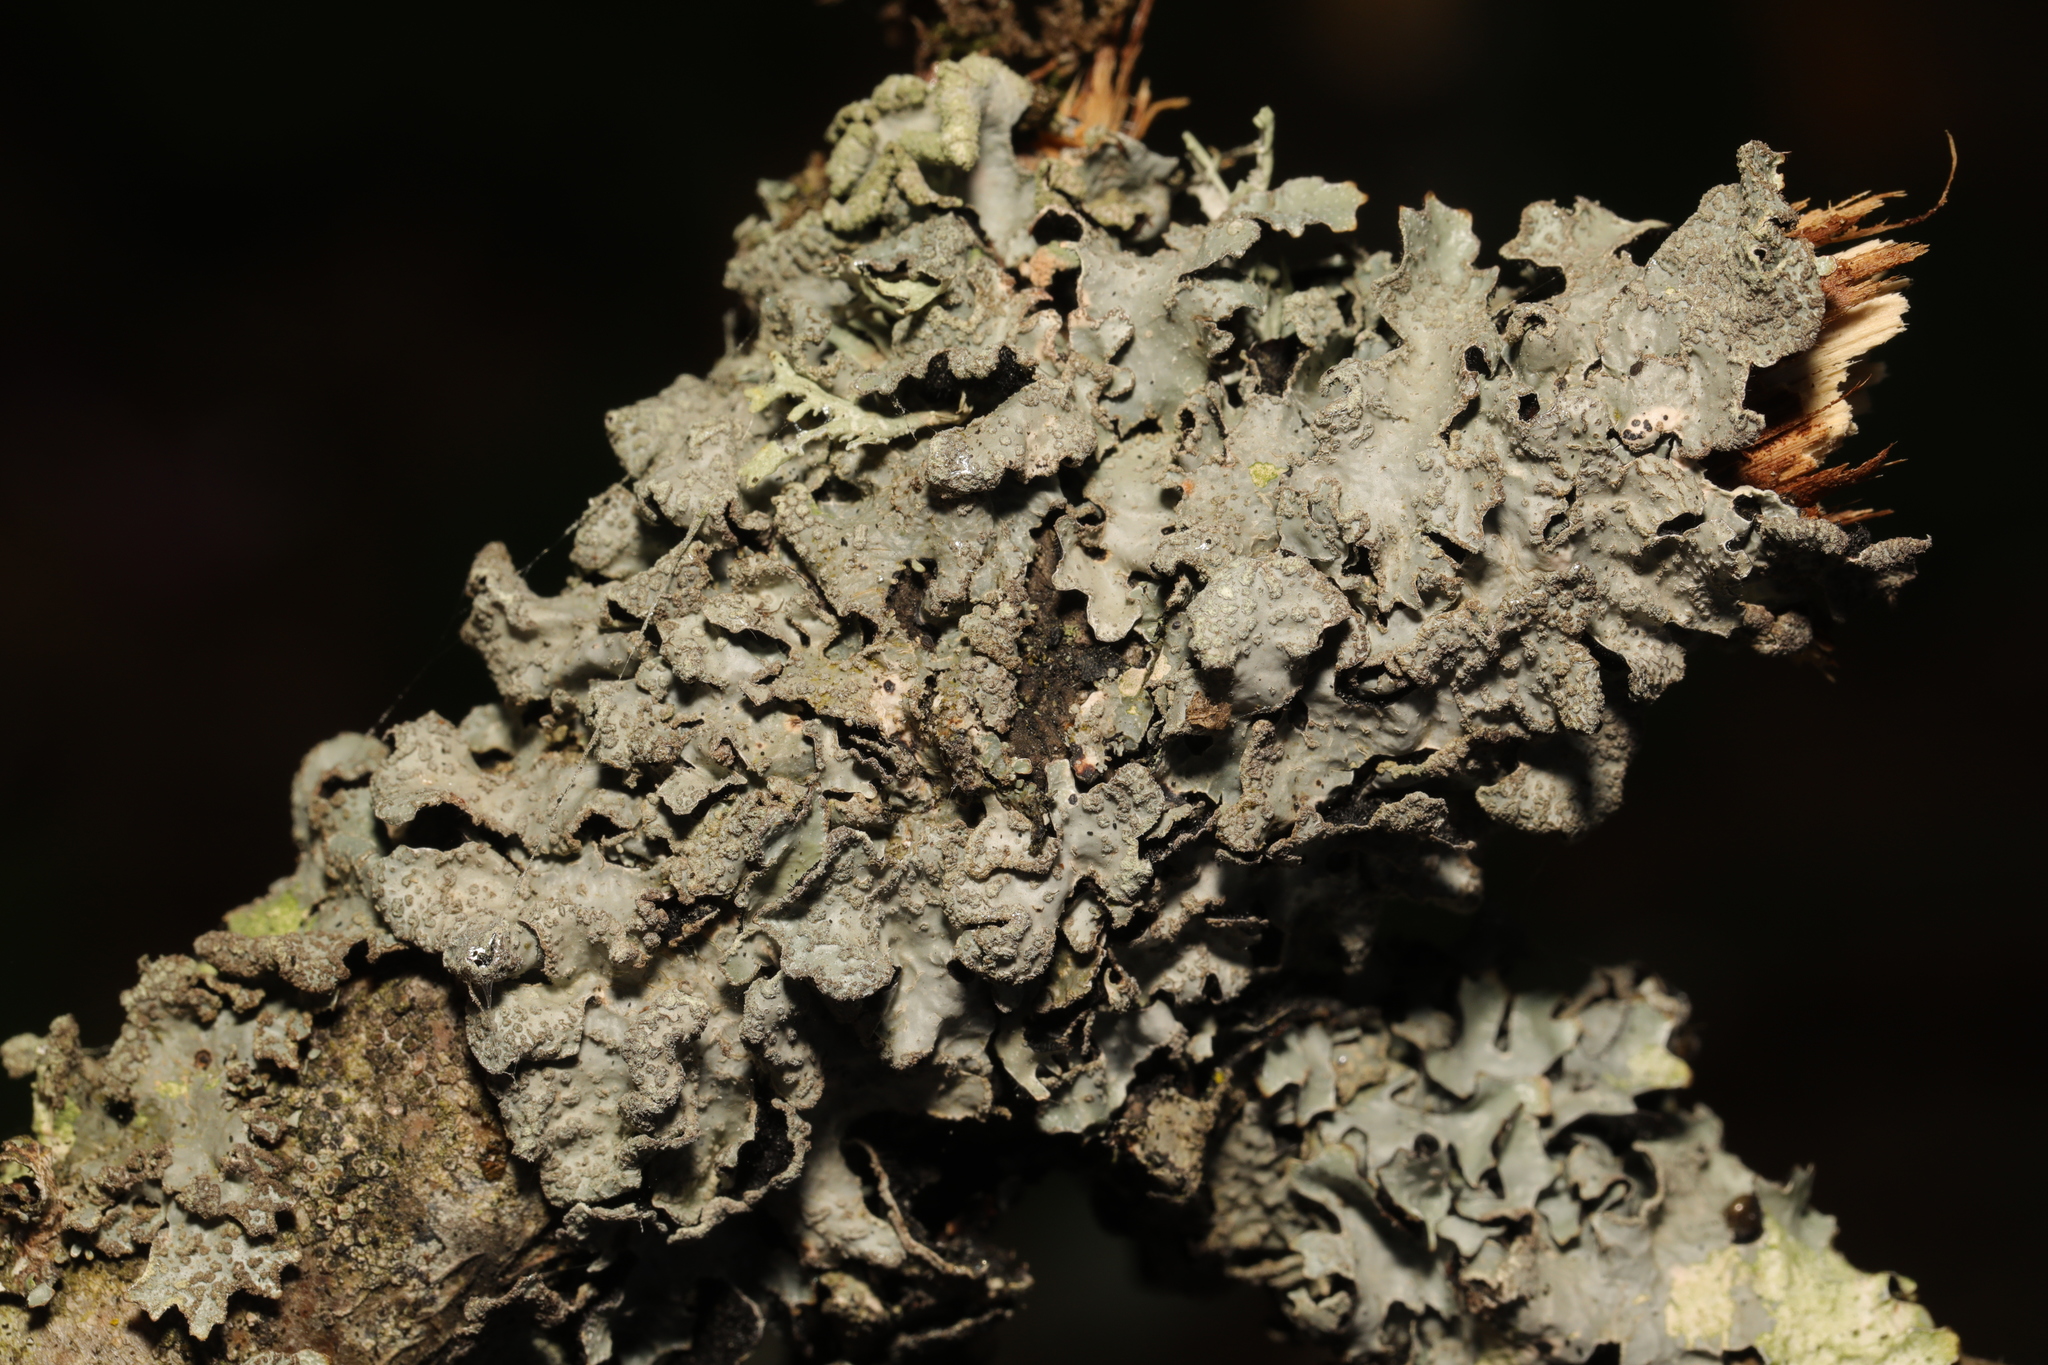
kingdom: Fungi
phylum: Ascomycota
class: Lecanoromycetes
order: Lecanorales
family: Parmeliaceae
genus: Parmelia
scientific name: Parmelia sulcata
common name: Netted shield lichen
